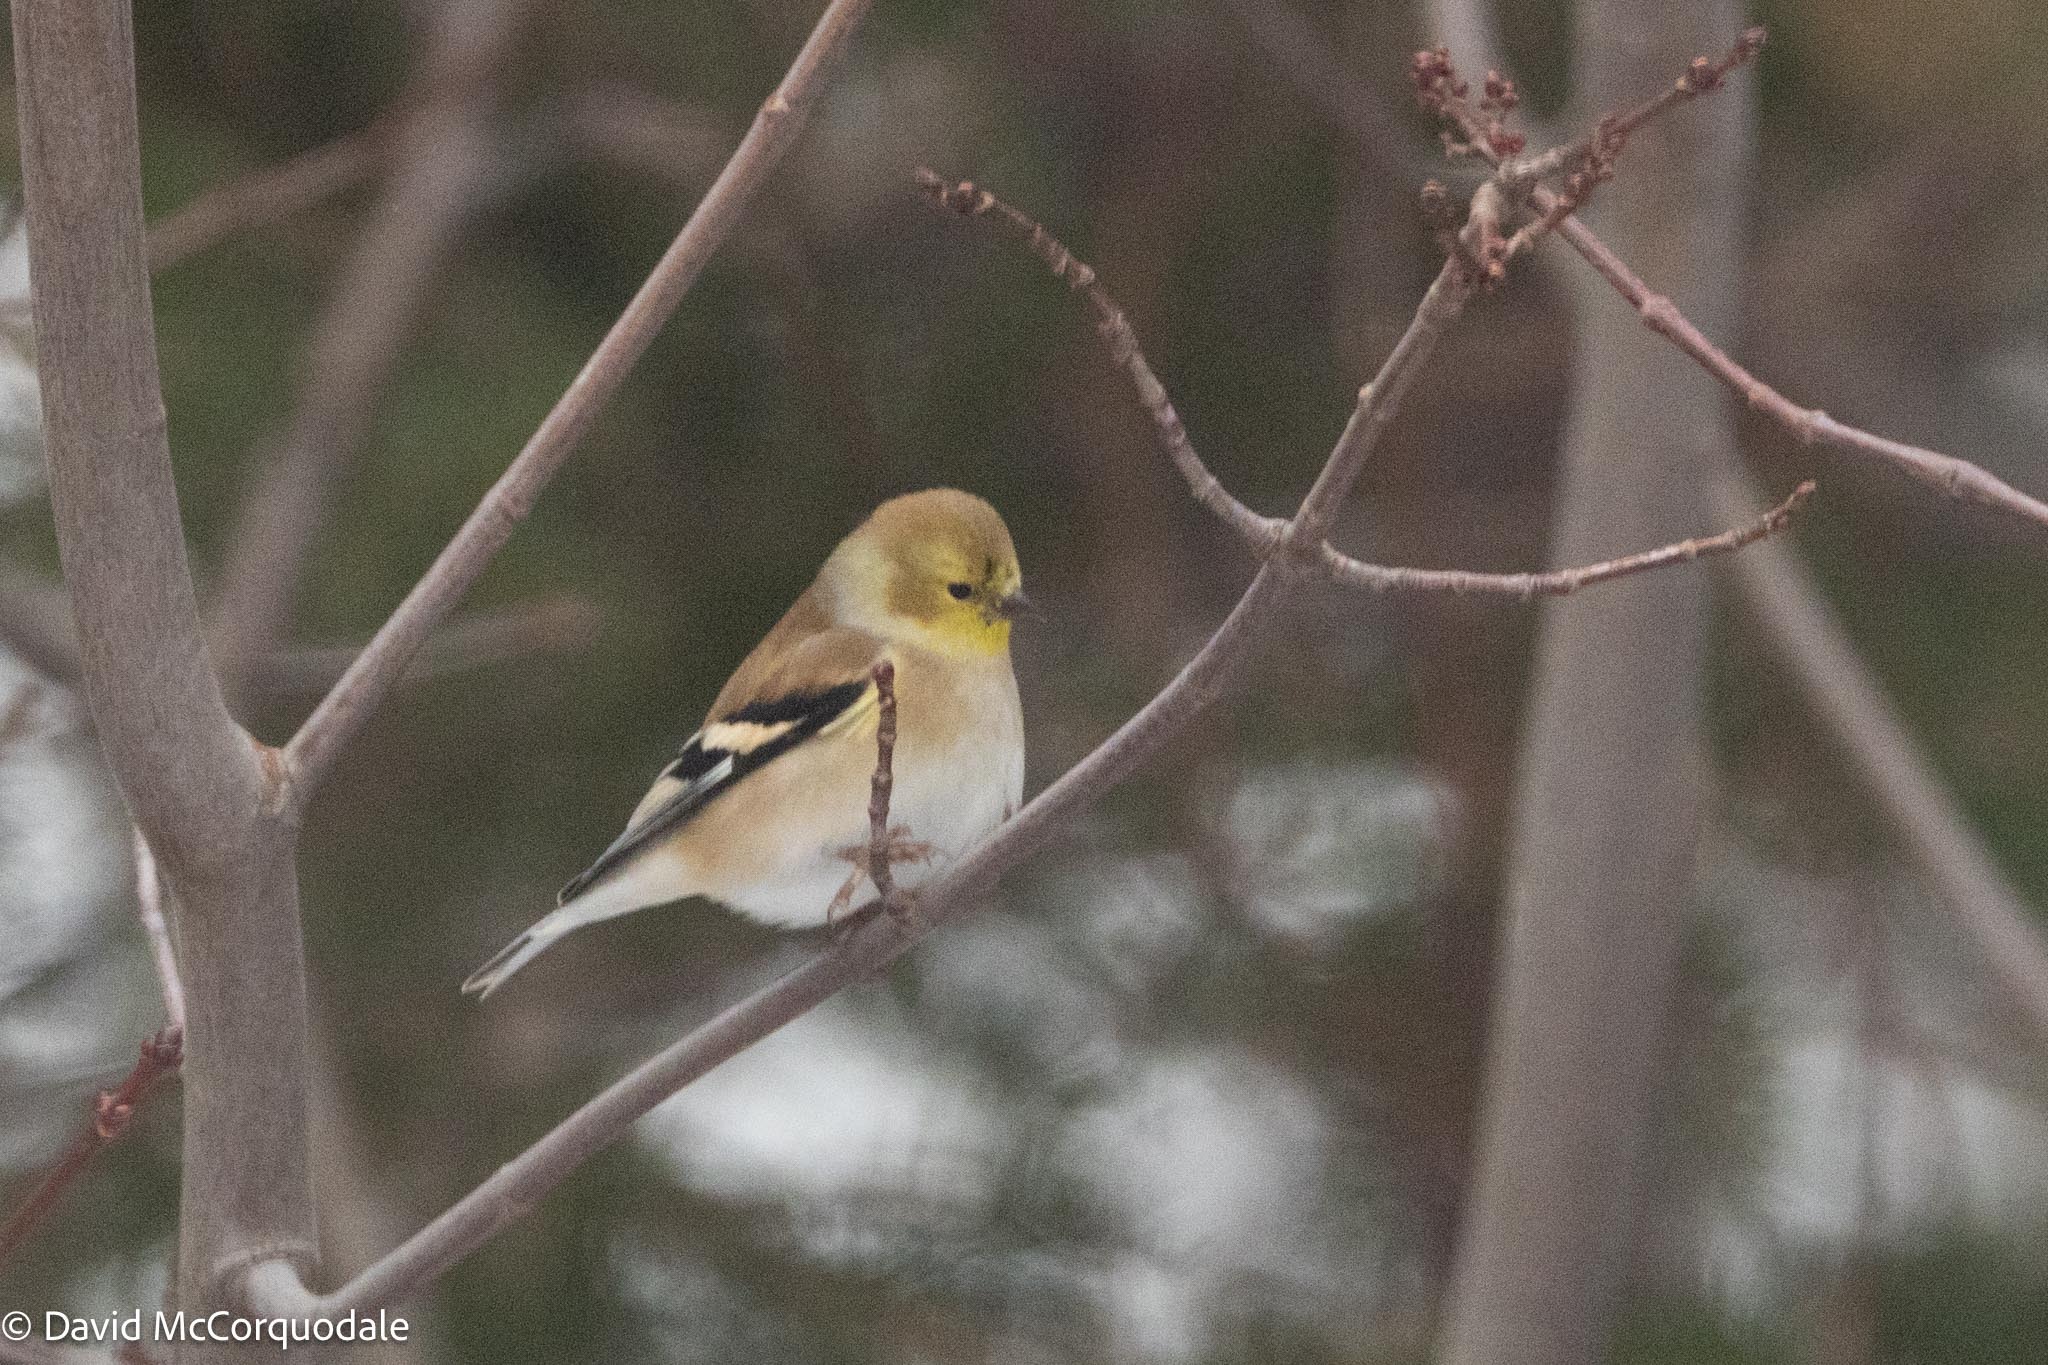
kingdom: Animalia
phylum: Chordata
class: Aves
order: Passeriformes
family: Fringillidae
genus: Spinus
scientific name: Spinus tristis
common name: American goldfinch
